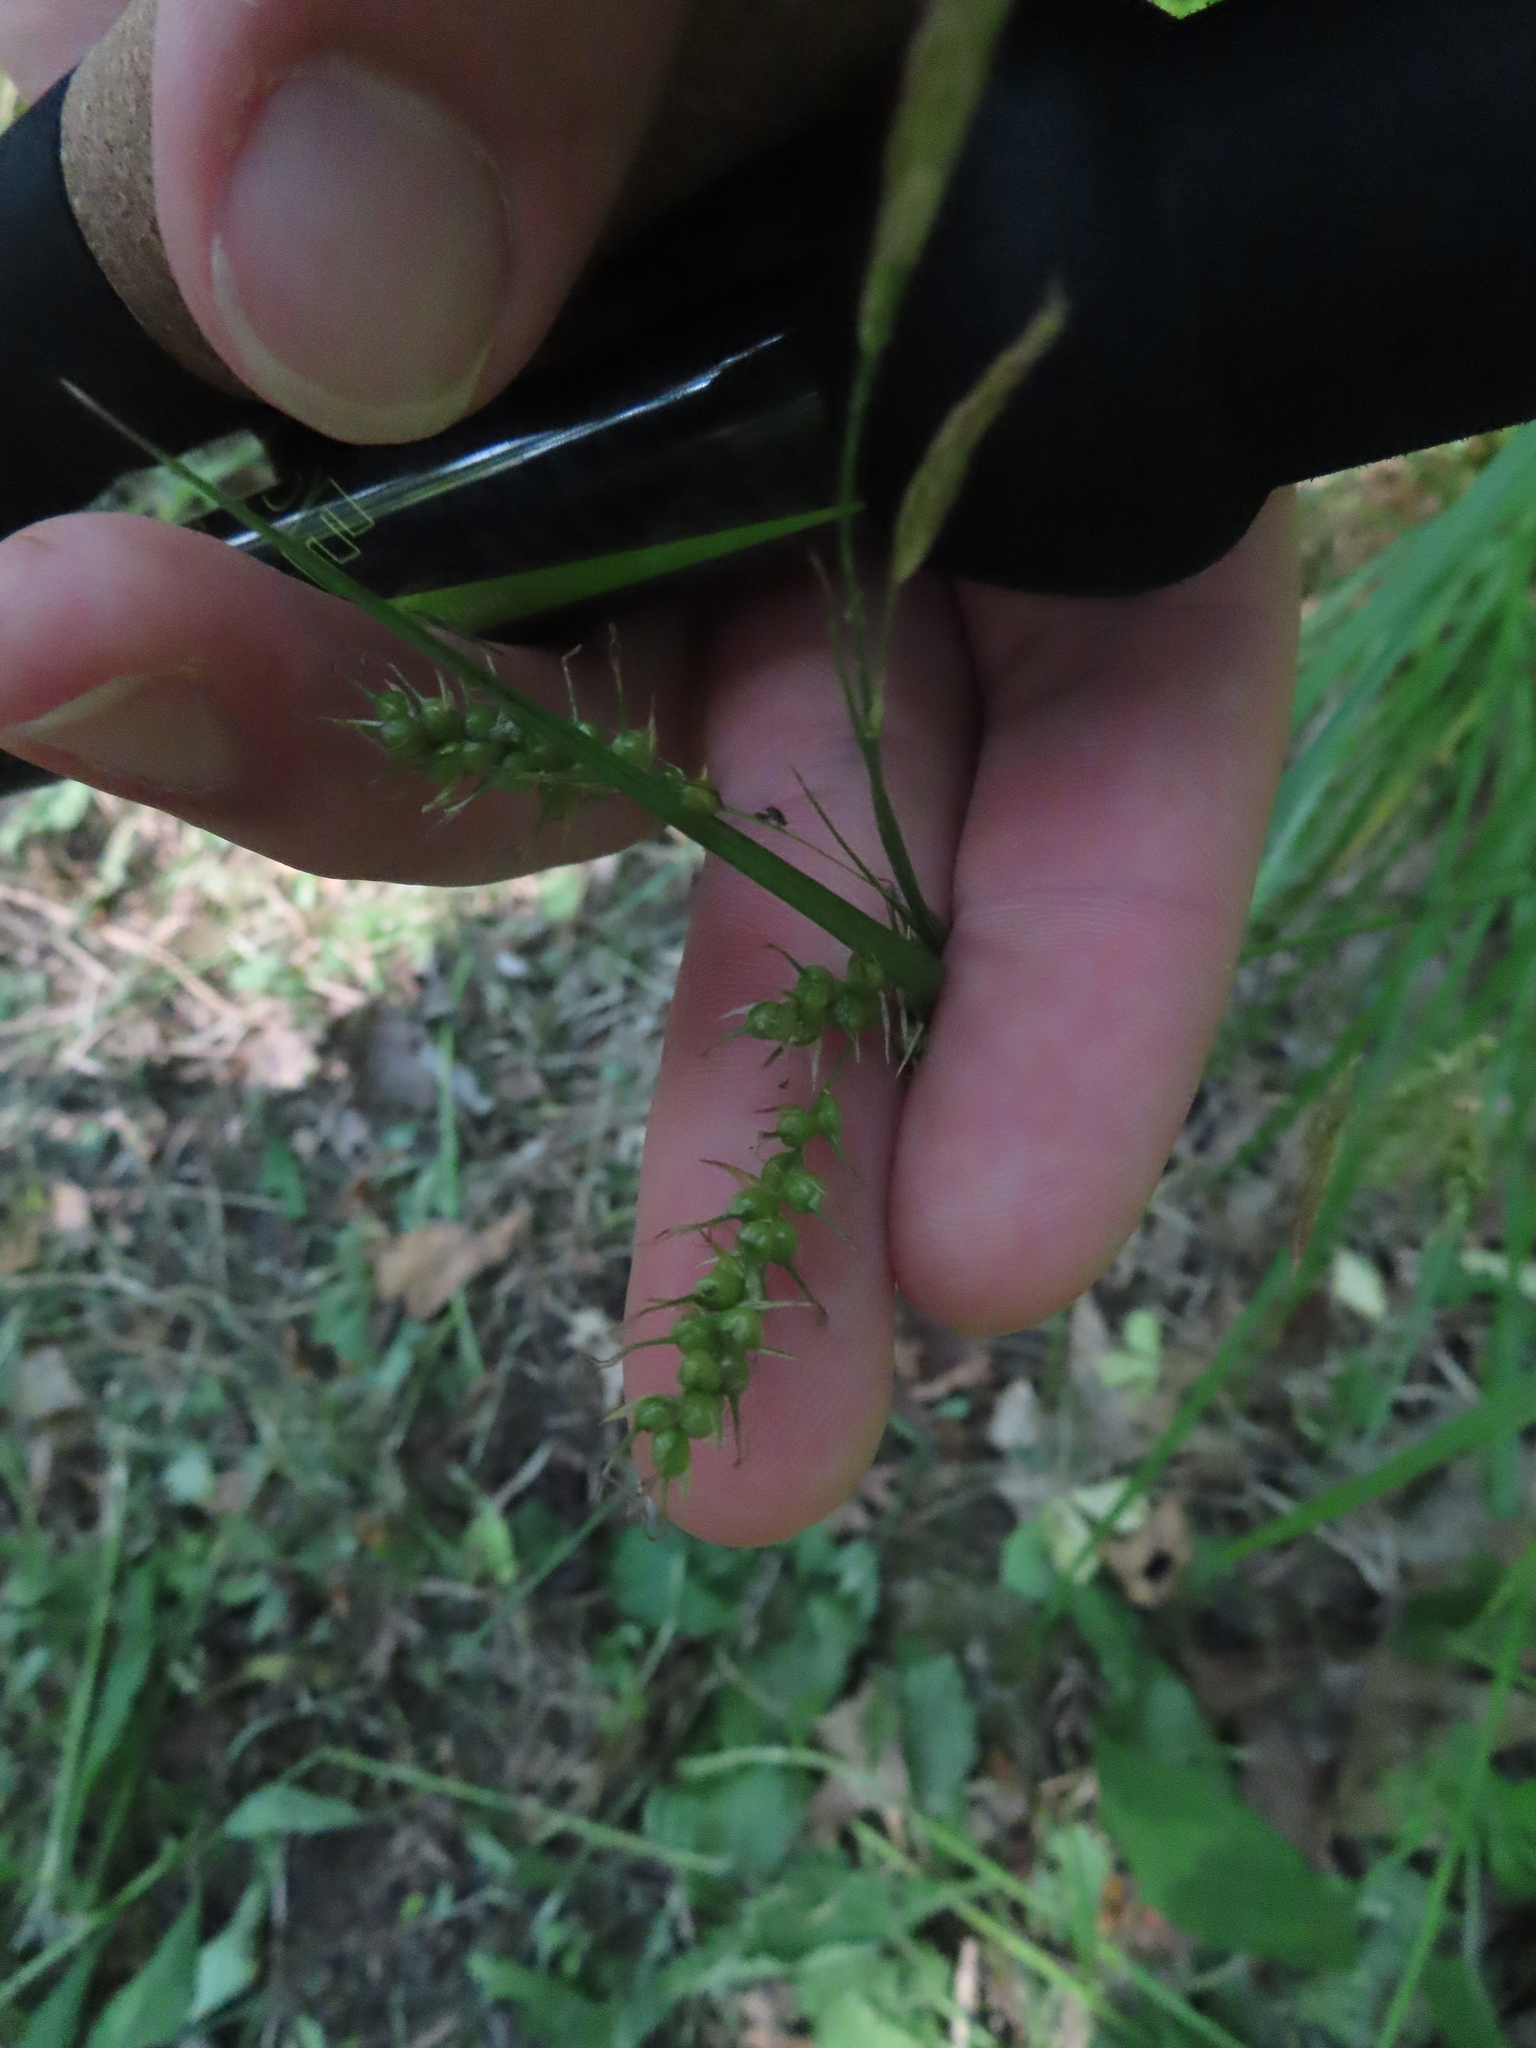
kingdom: Plantae
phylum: Tracheophyta
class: Liliopsida
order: Poales
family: Cyperaceae
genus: Carex
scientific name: Carex sprengelii
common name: Long-beaked sedge
